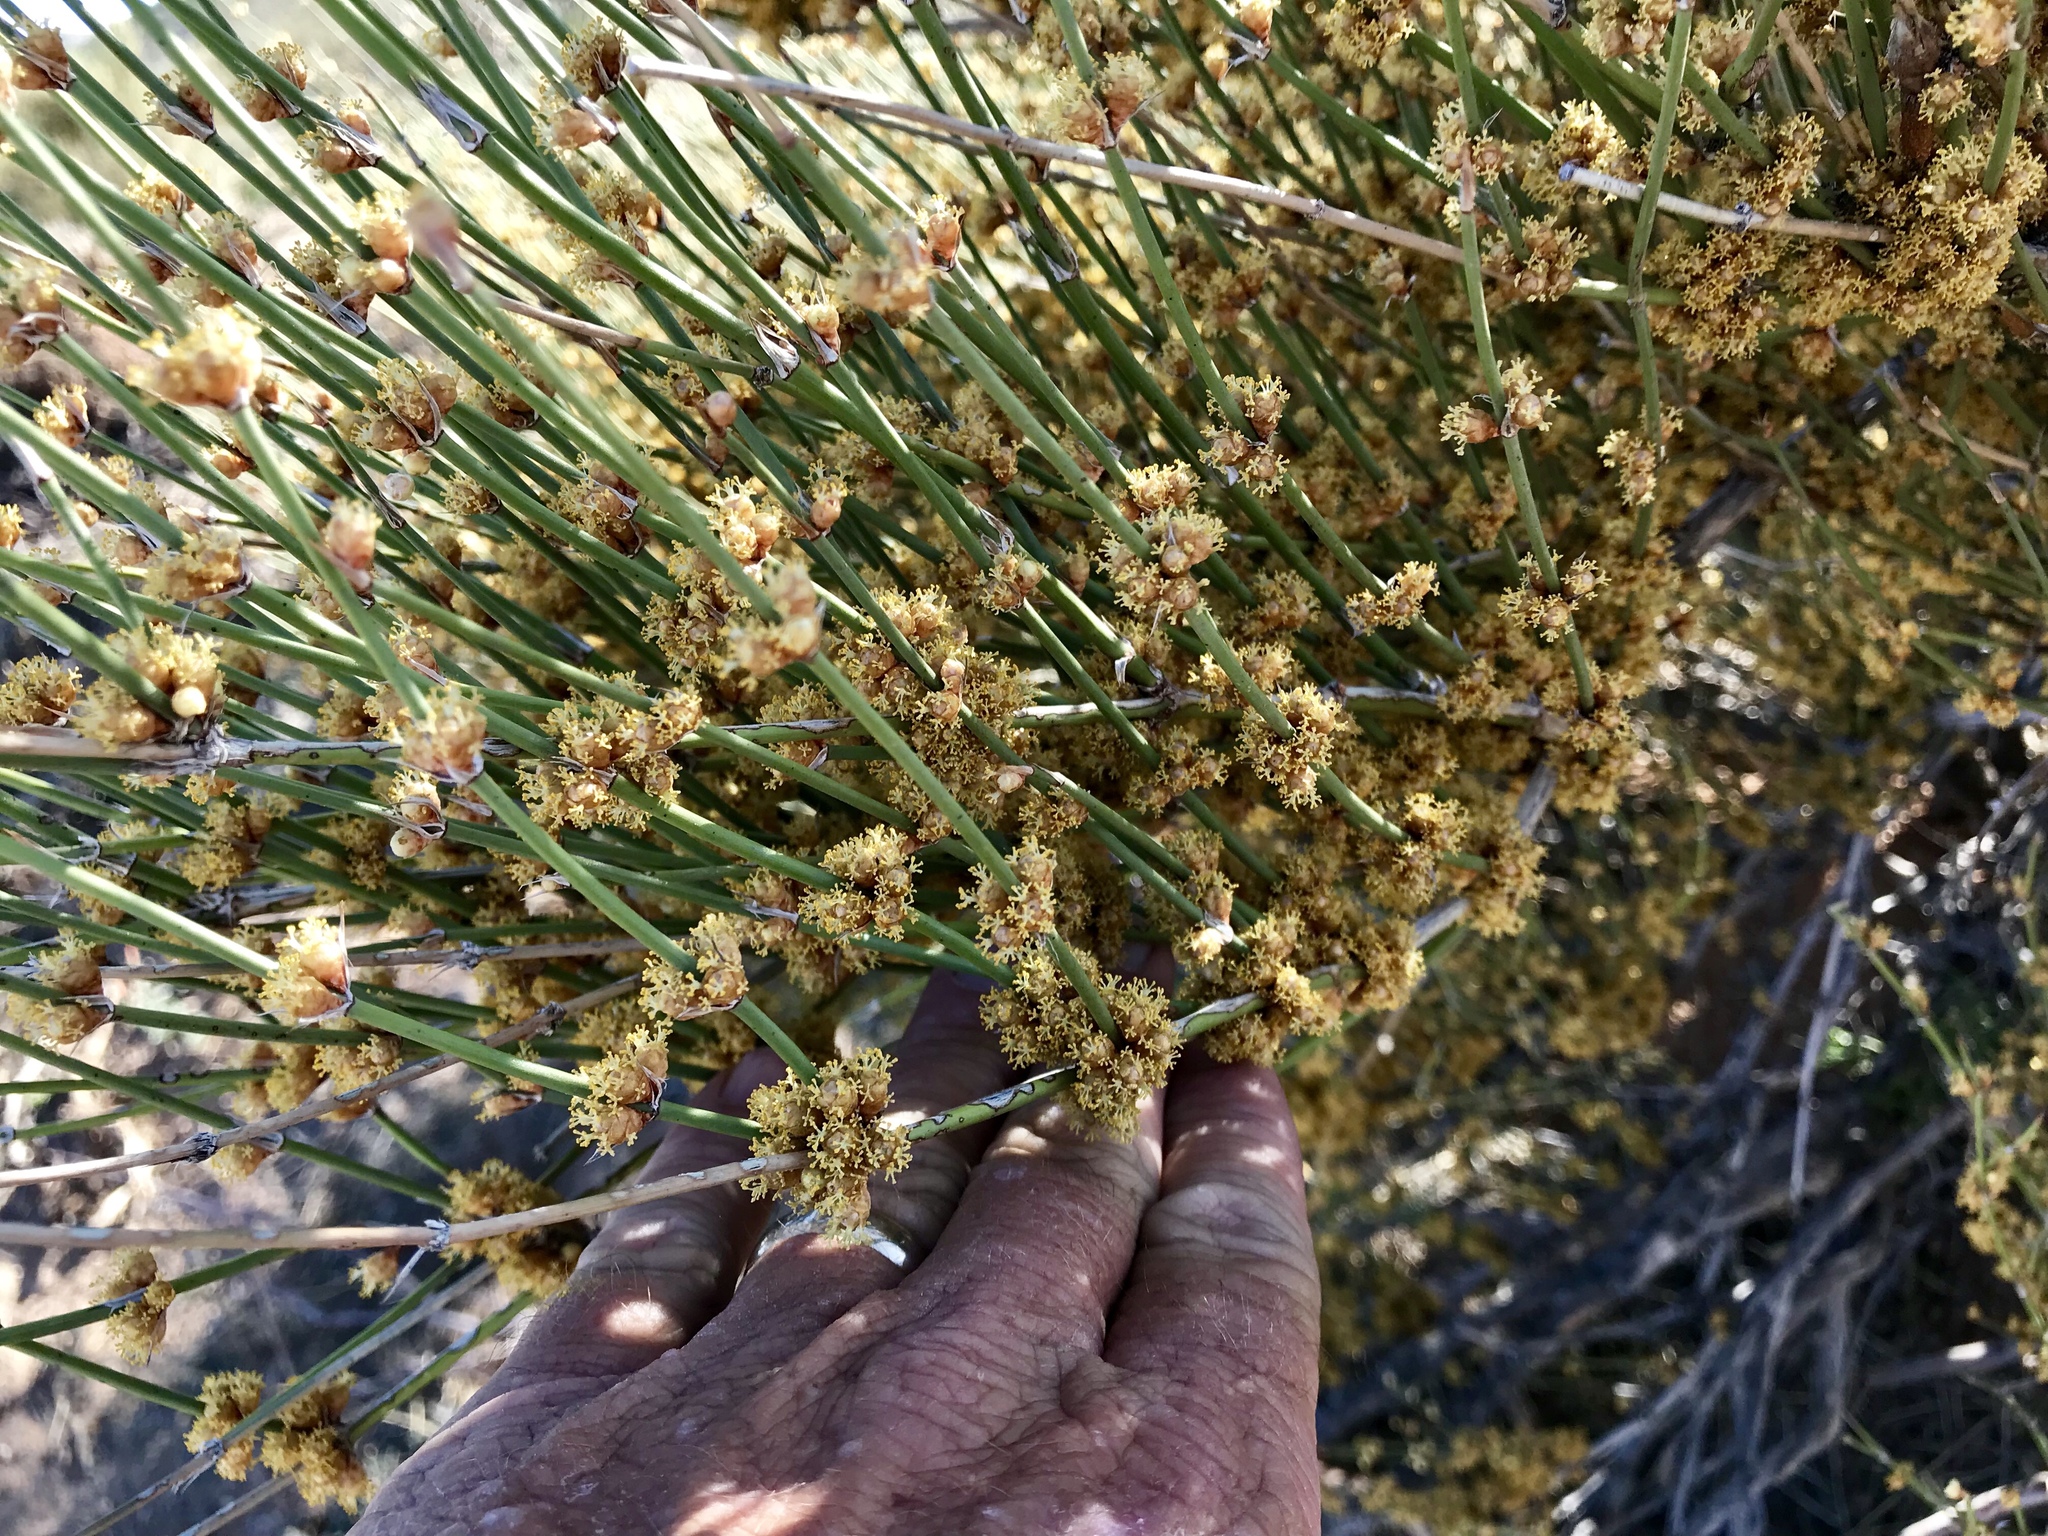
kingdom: Plantae
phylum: Tracheophyta
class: Gnetopsida
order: Ephedrales
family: Ephedraceae
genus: Ephedra
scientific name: Ephedra trifurca
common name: Mexican-tea
